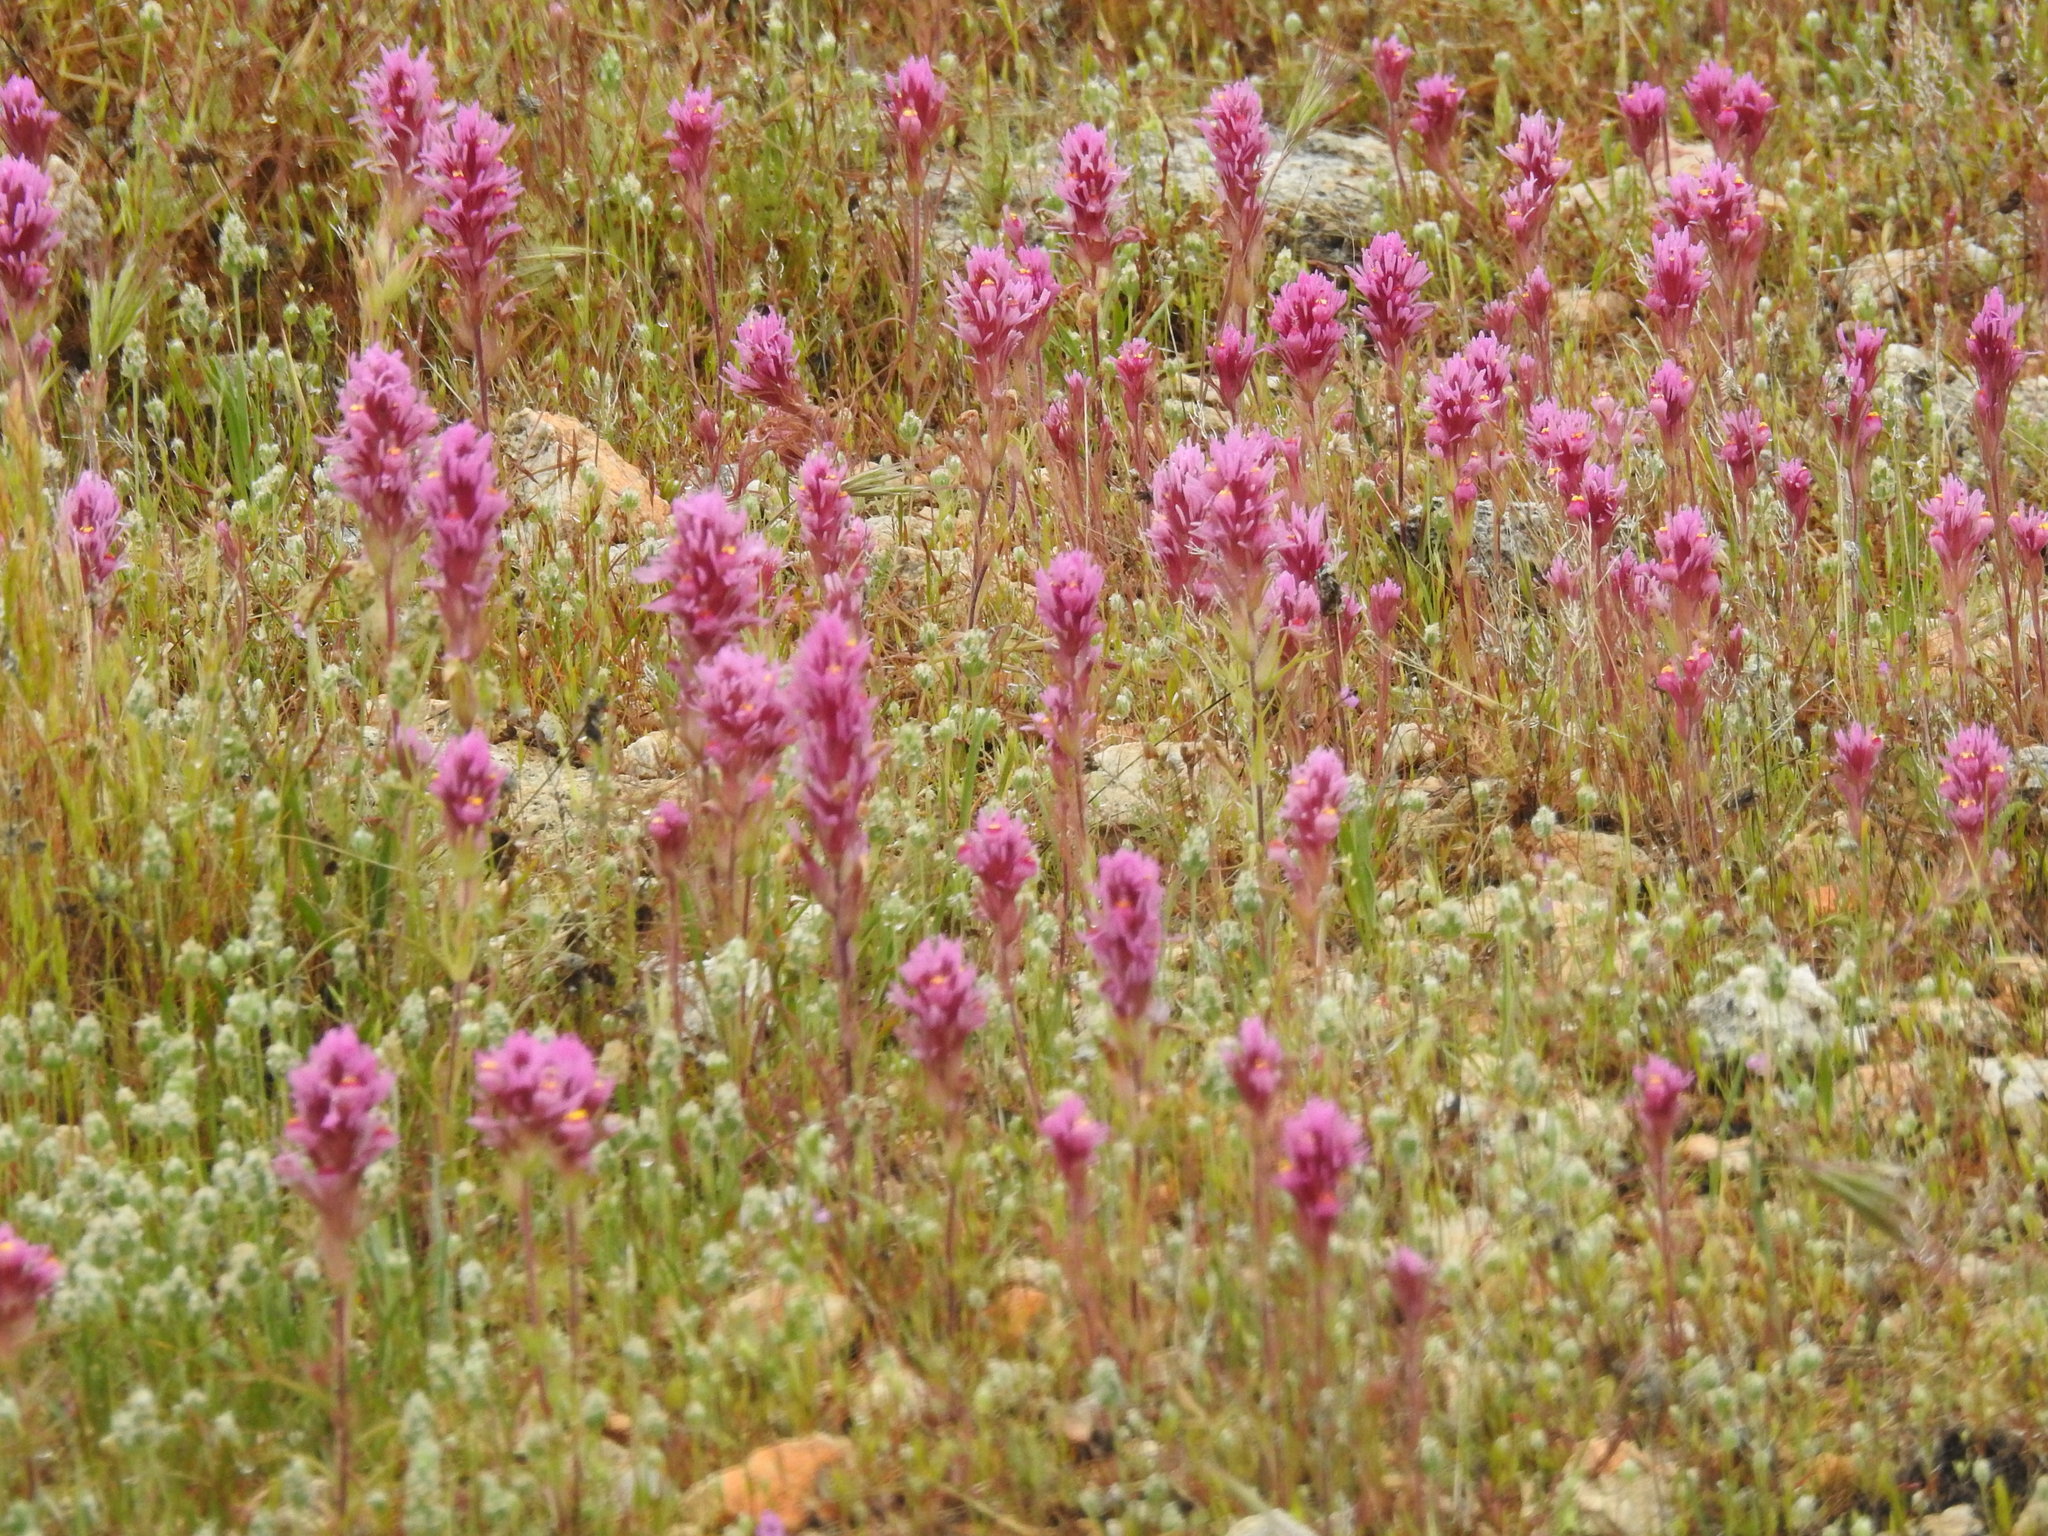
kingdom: Plantae
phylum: Tracheophyta
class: Magnoliopsida
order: Lamiales
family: Orobanchaceae
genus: Castilleja
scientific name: Castilleja exserta
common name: Purple owl-clover
